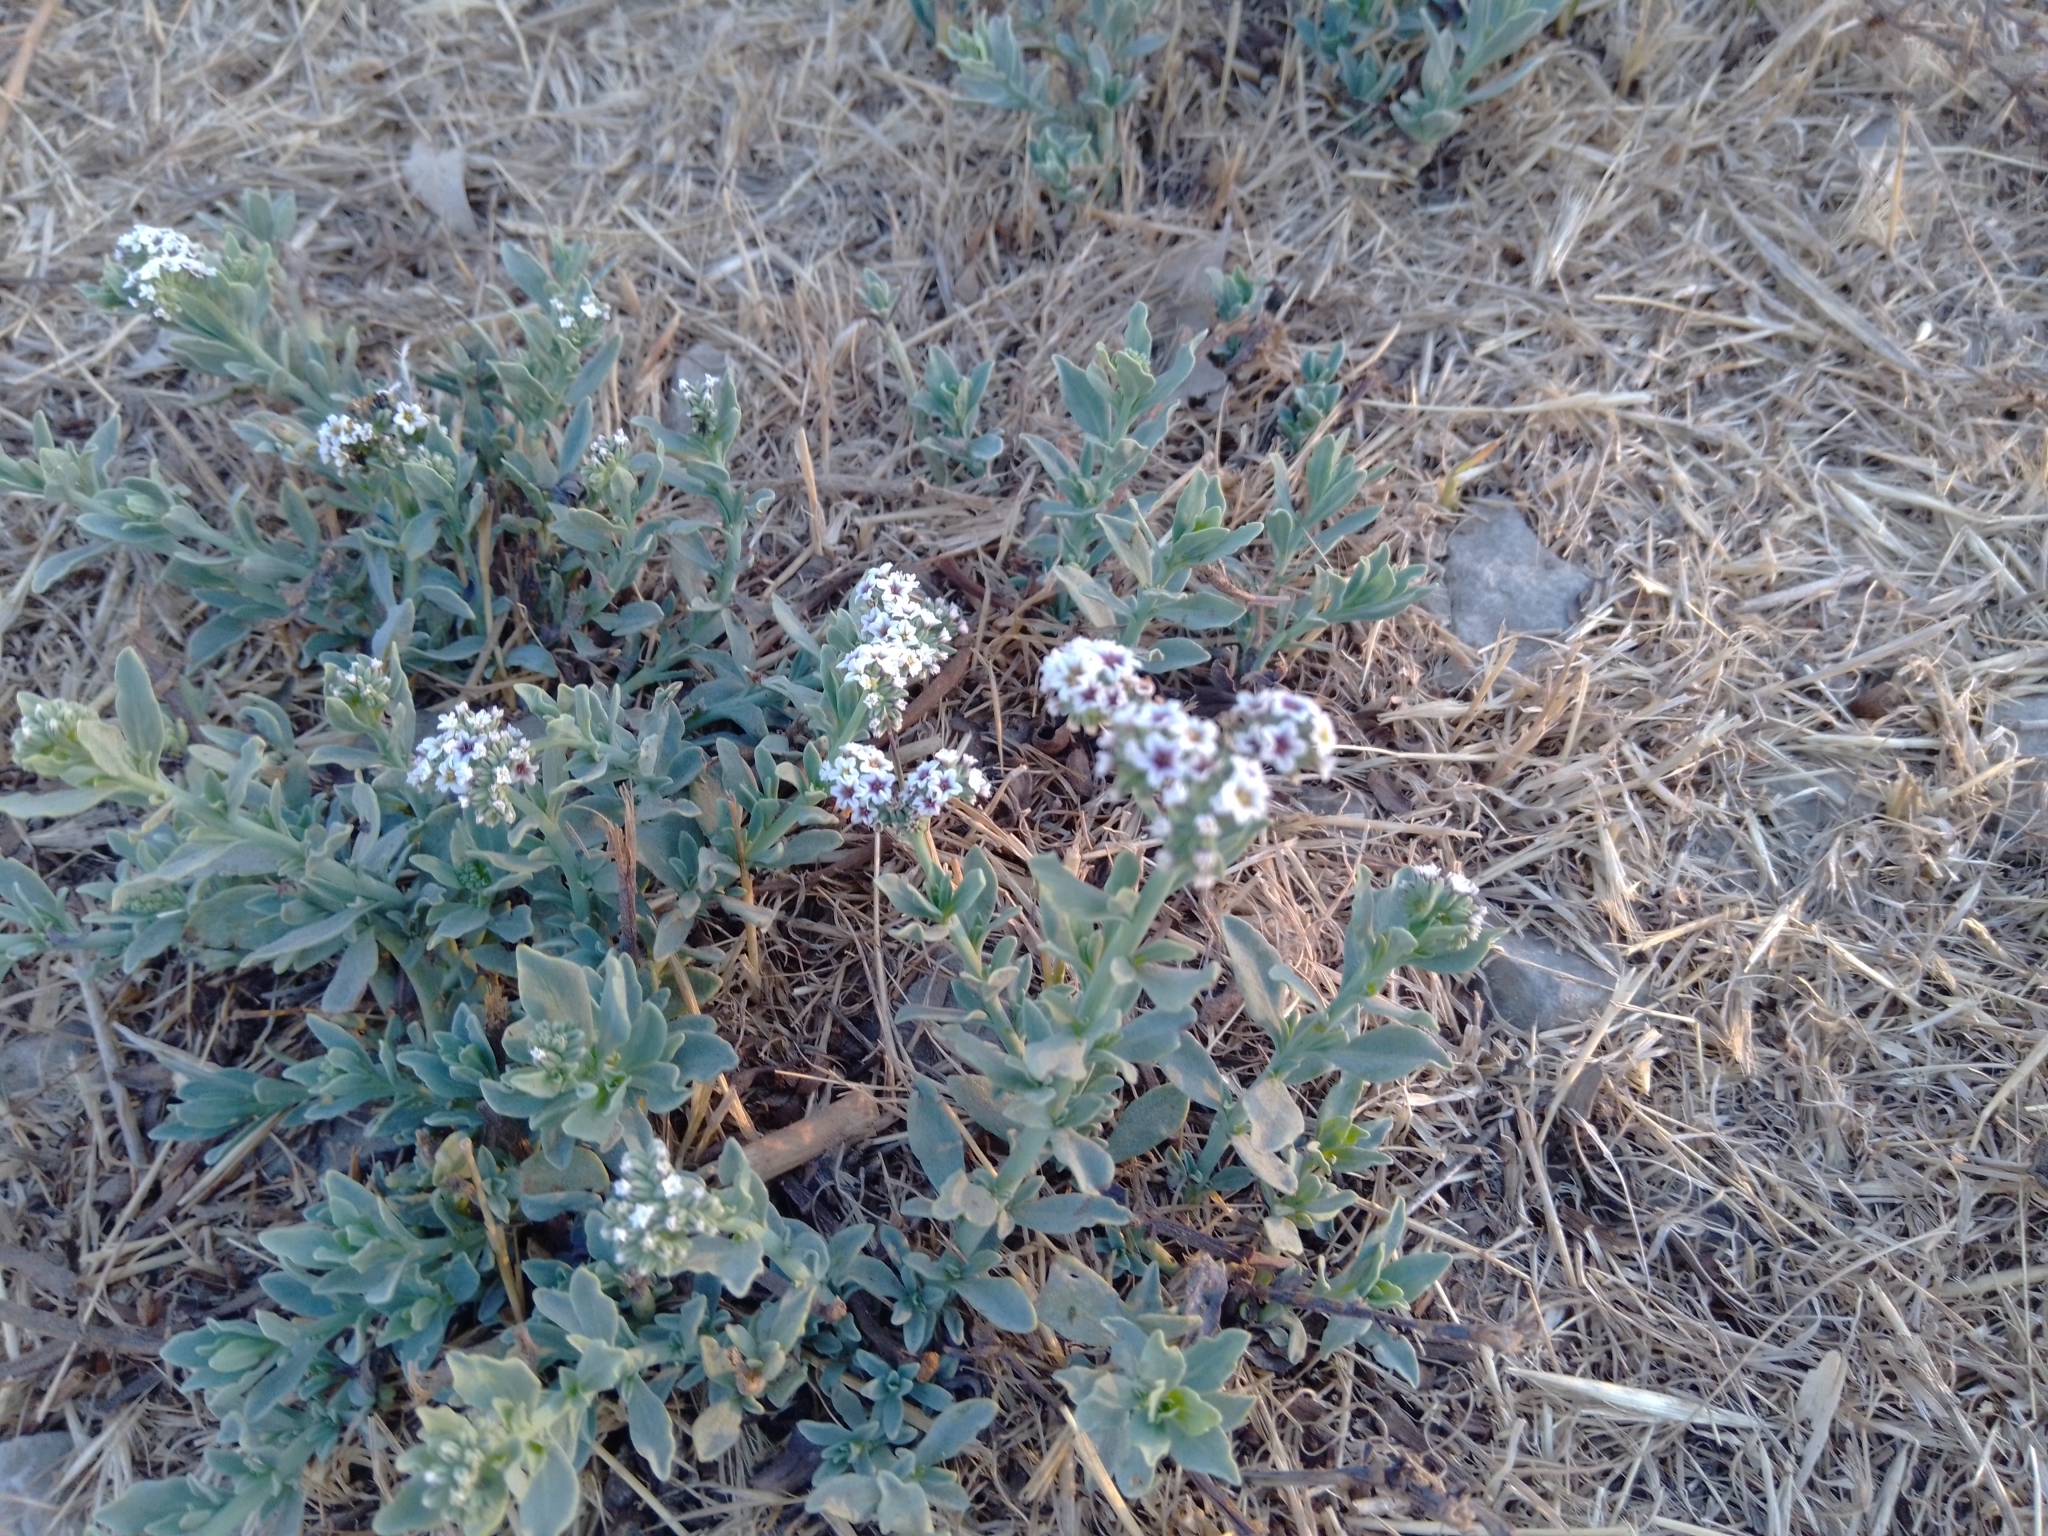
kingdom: Plantae
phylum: Tracheophyta
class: Magnoliopsida
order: Boraginales
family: Heliotropiaceae
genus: Heliotropium
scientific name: Heliotropium curassavicum
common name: Seaside heliotrope
